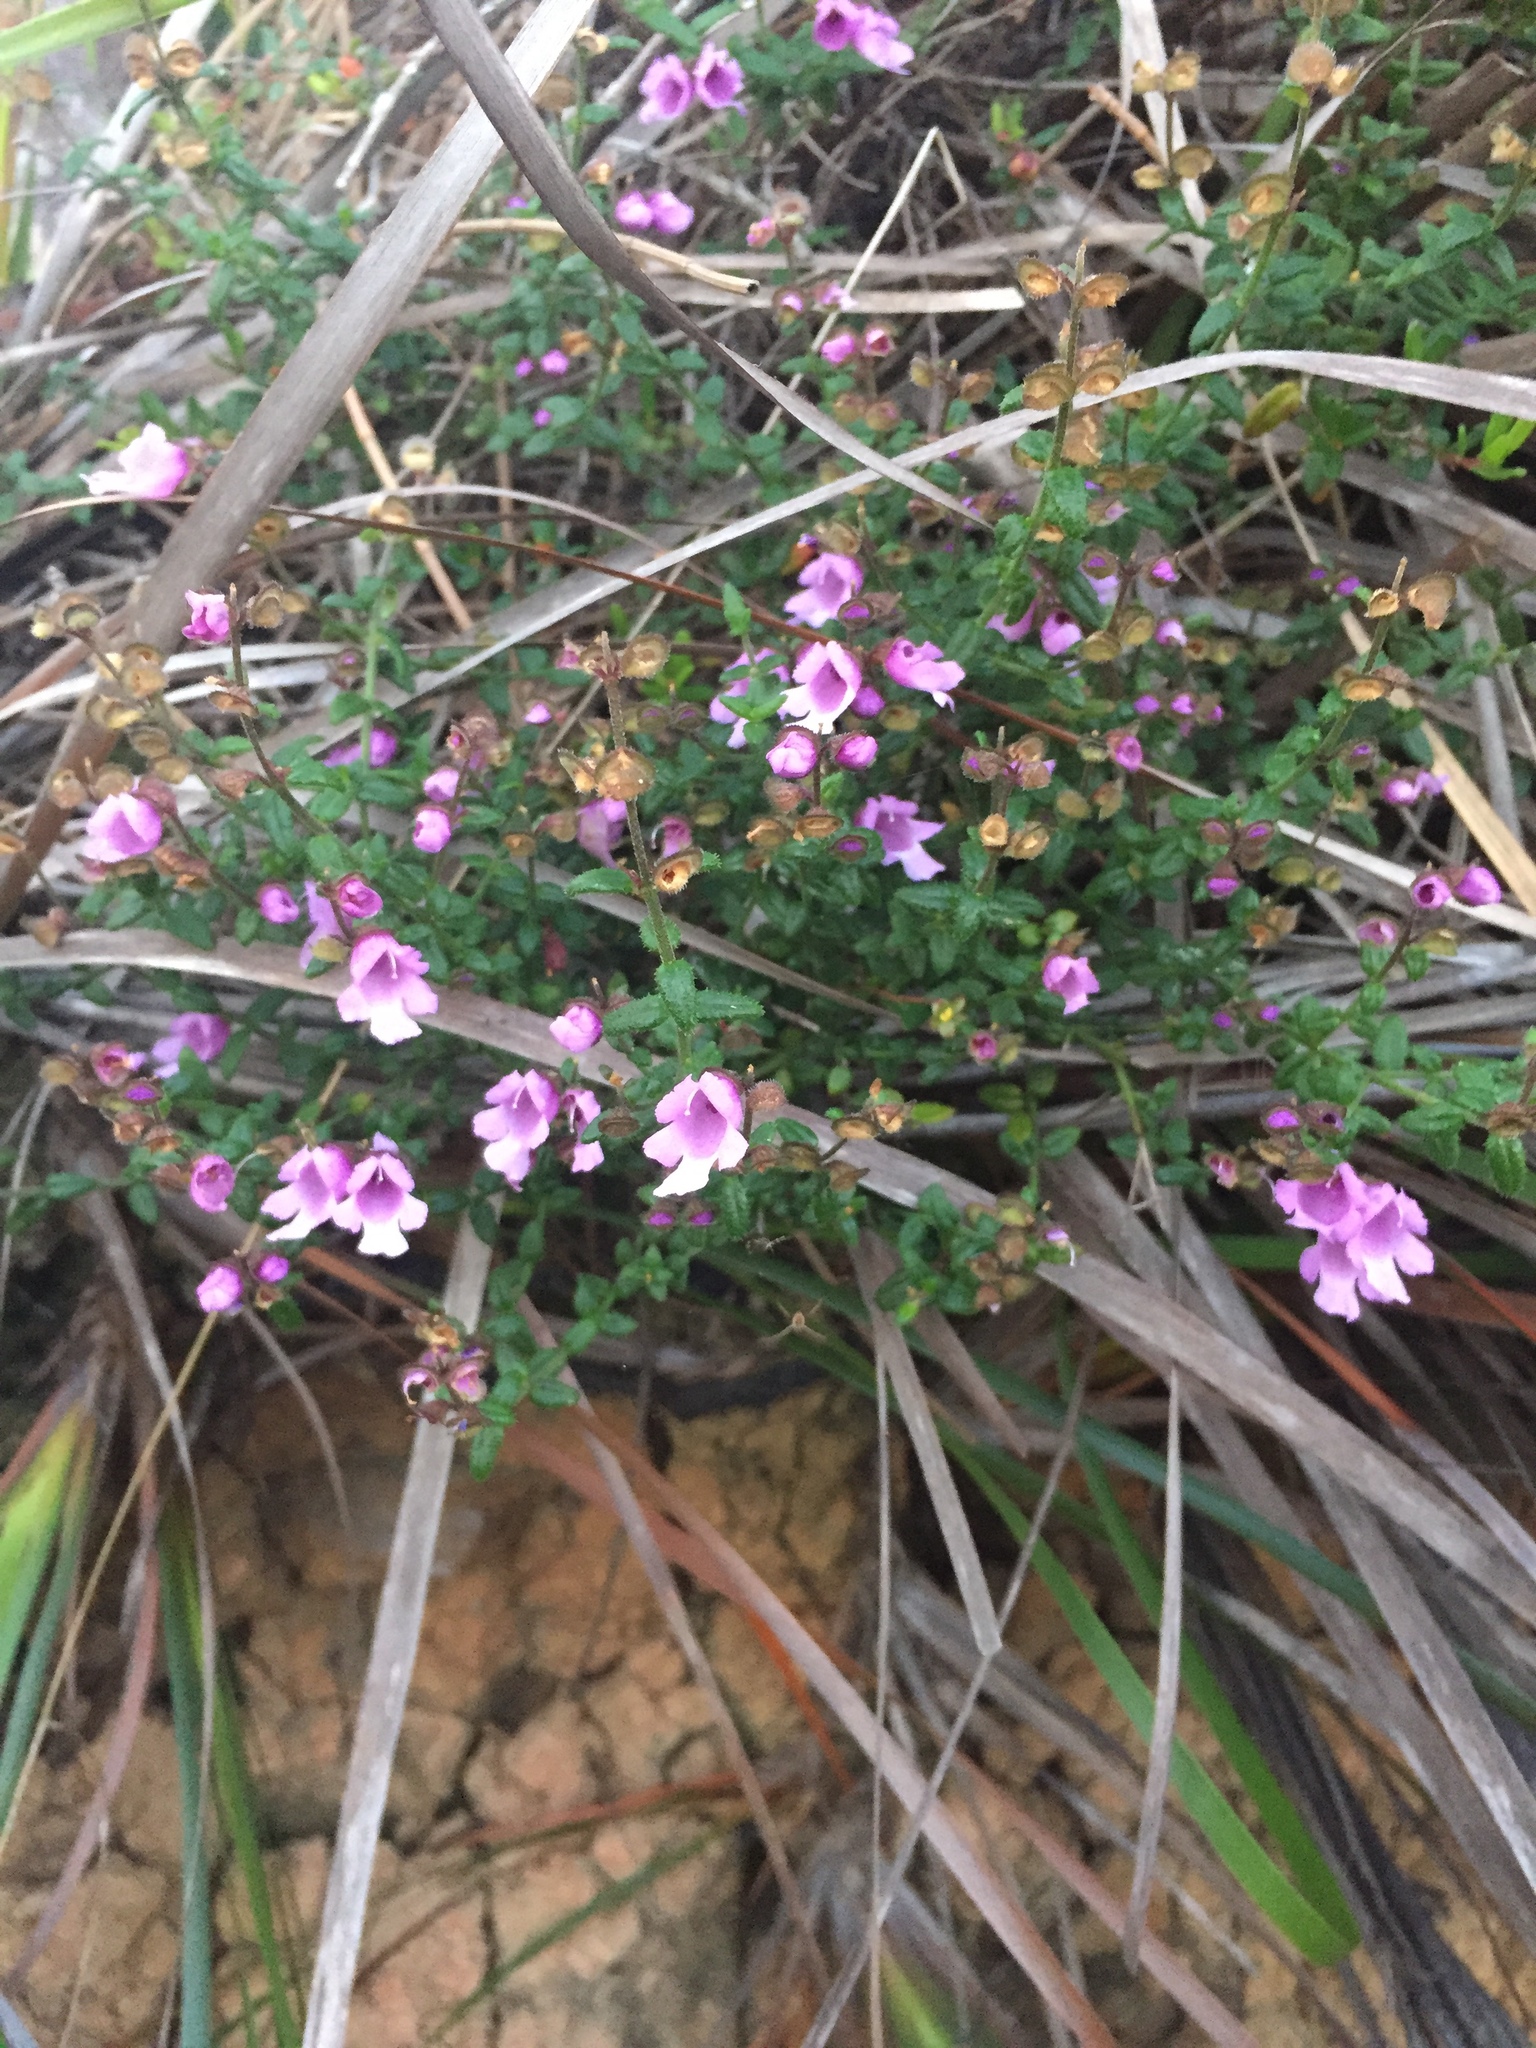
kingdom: Plantae
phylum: Tracheophyta
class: Magnoliopsida
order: Lamiales
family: Lamiaceae
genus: Prostanthera
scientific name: Prostanthera denticulata
